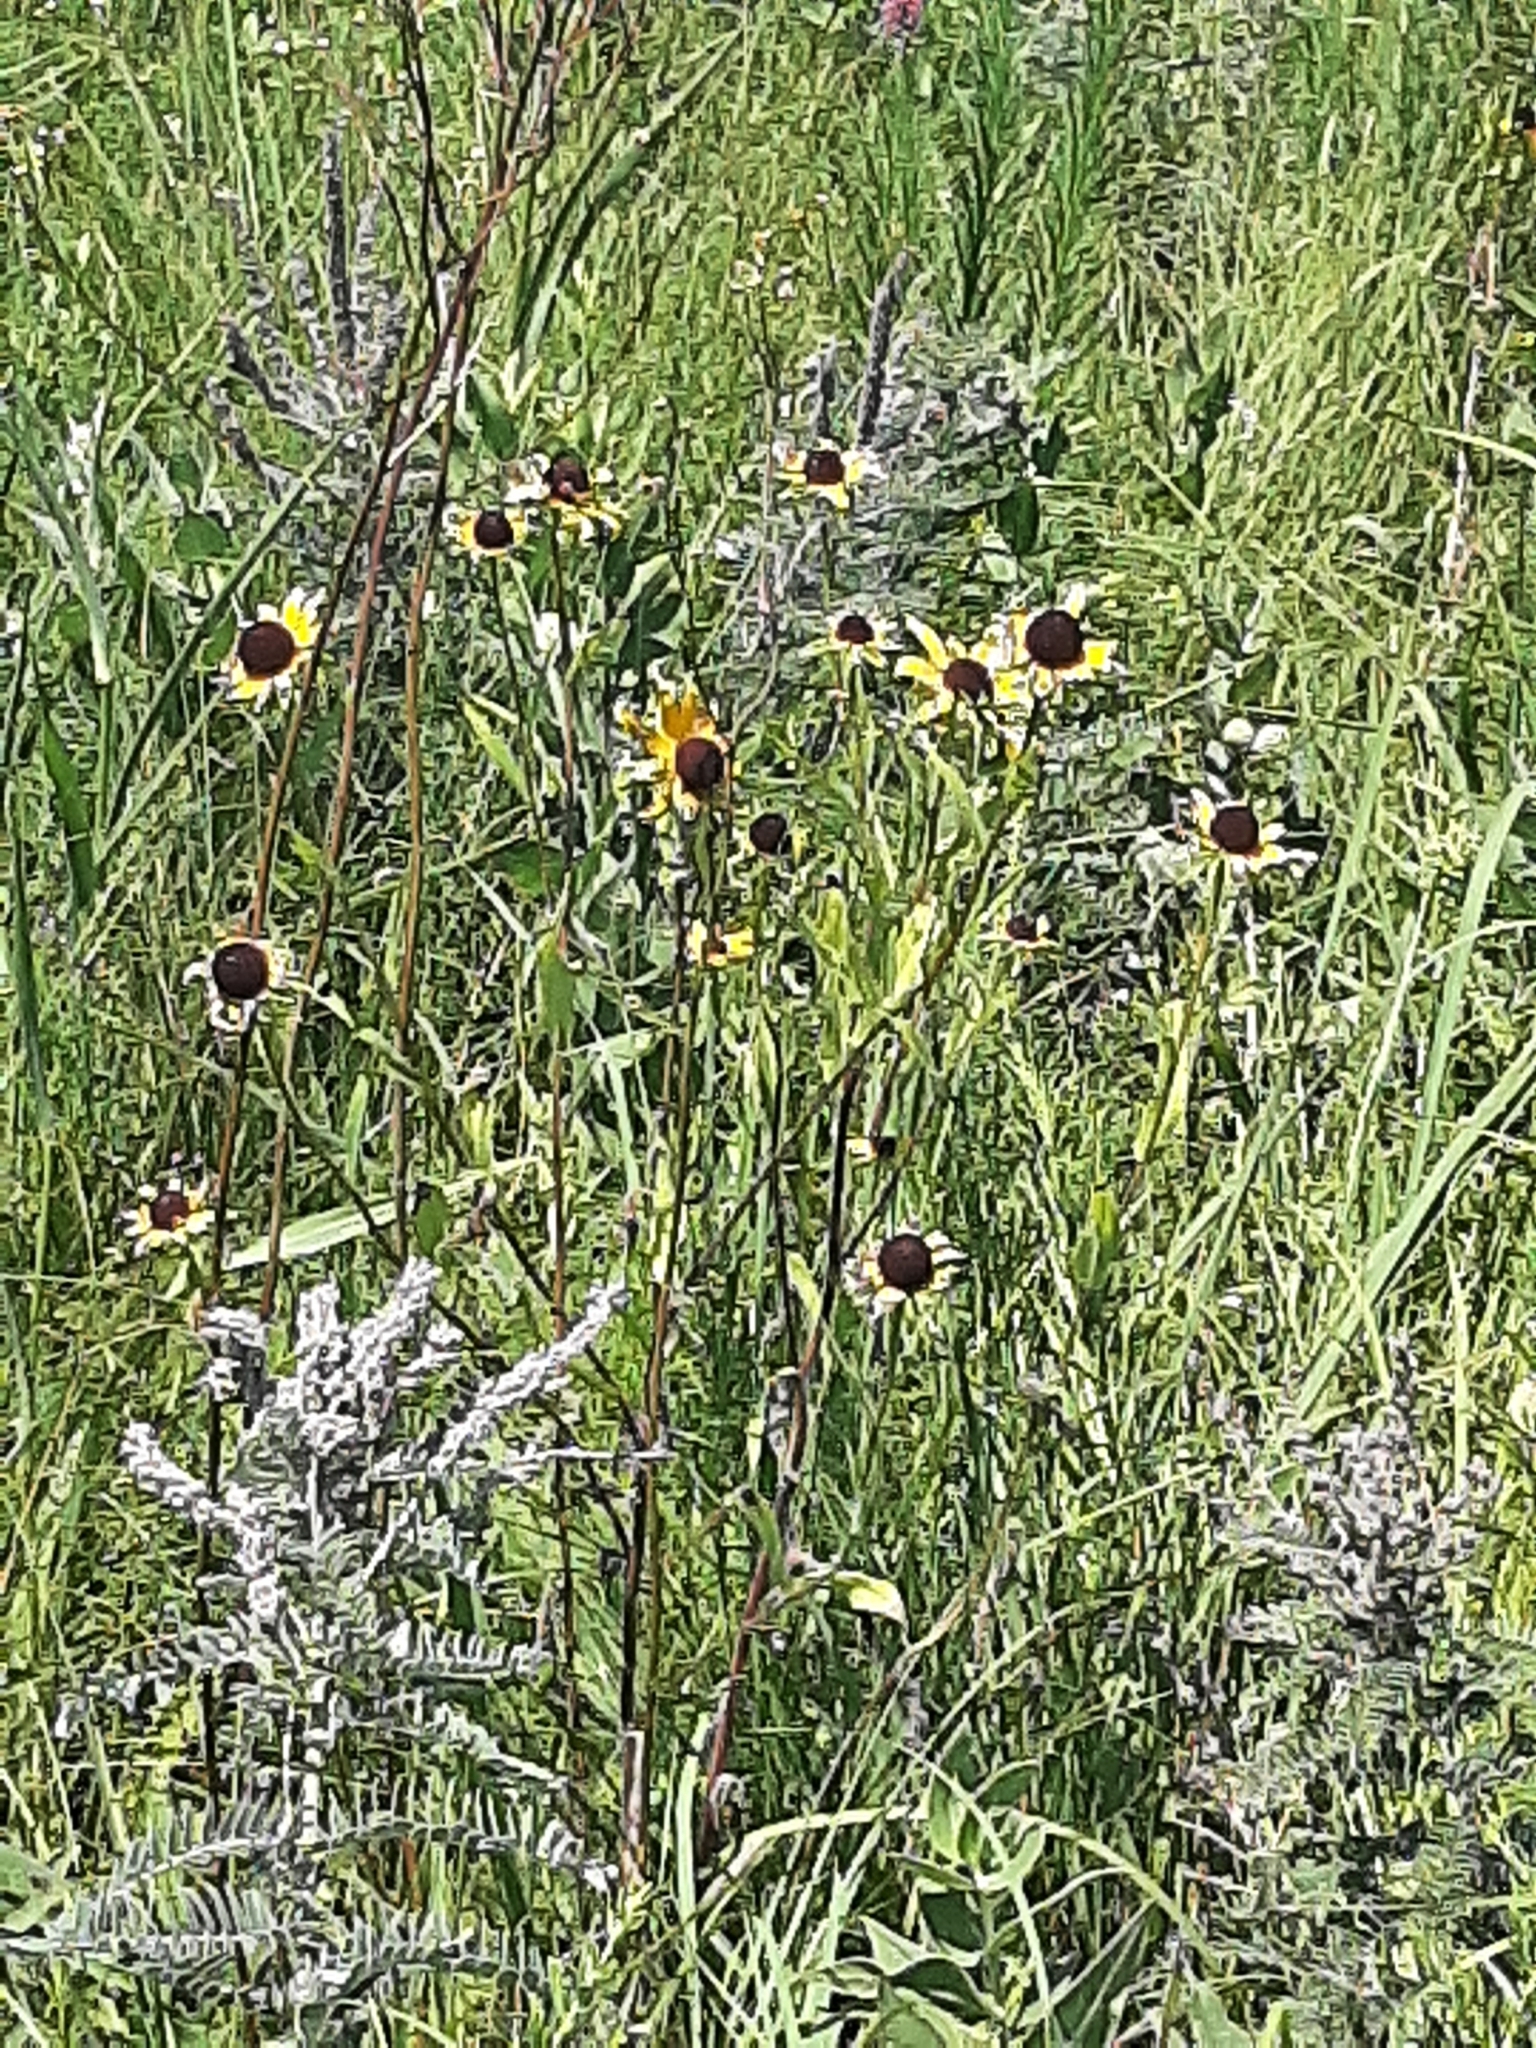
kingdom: Plantae
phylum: Tracheophyta
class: Magnoliopsida
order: Asterales
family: Asteraceae
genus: Rudbeckia
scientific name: Rudbeckia hirta
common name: Black-eyed-susan
